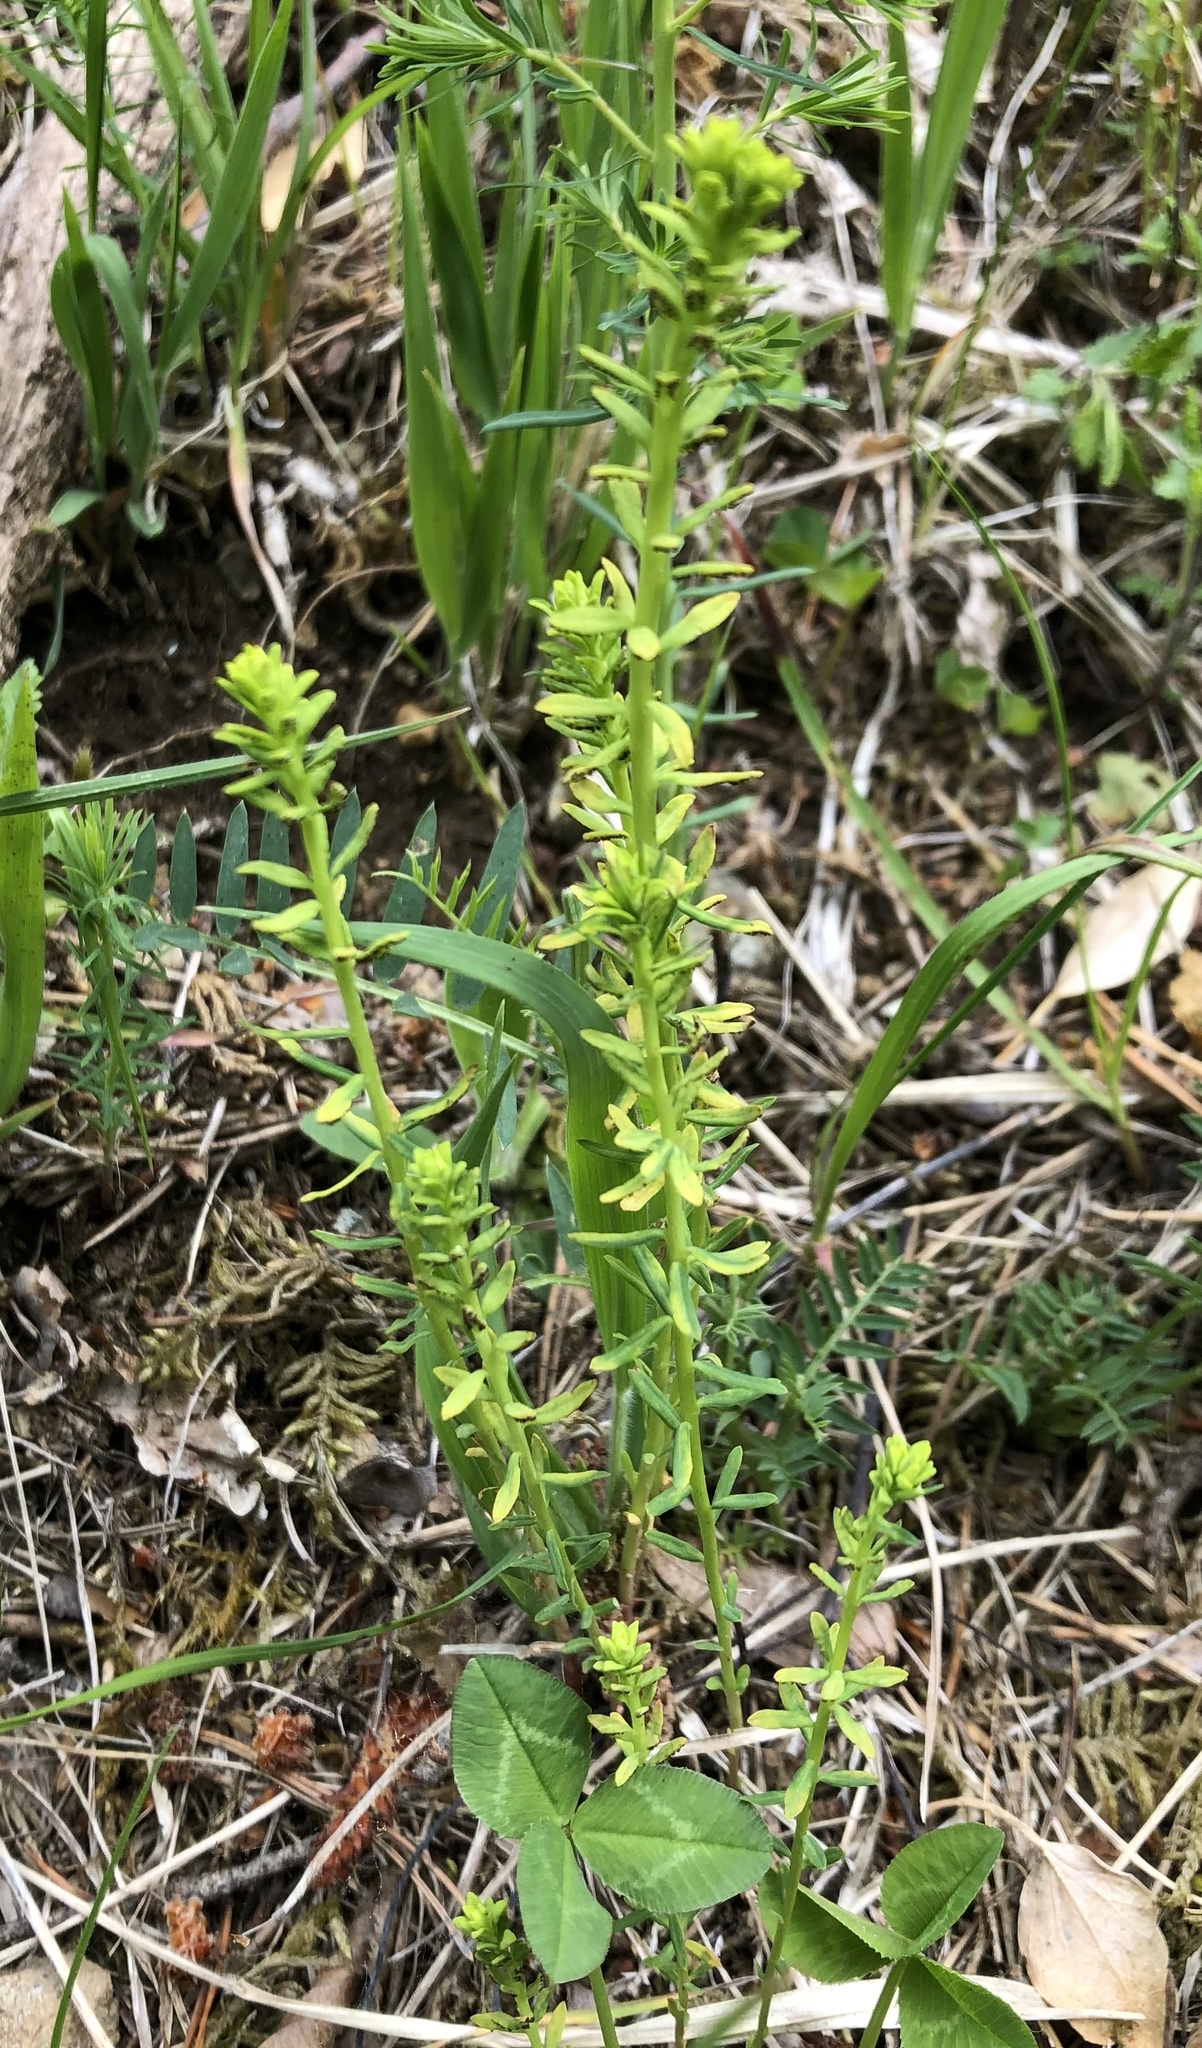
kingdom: Fungi
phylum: Basidiomycota
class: Pucciniomycetes
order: Pucciniales
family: Pucciniaceae
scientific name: Pucciniaceae
